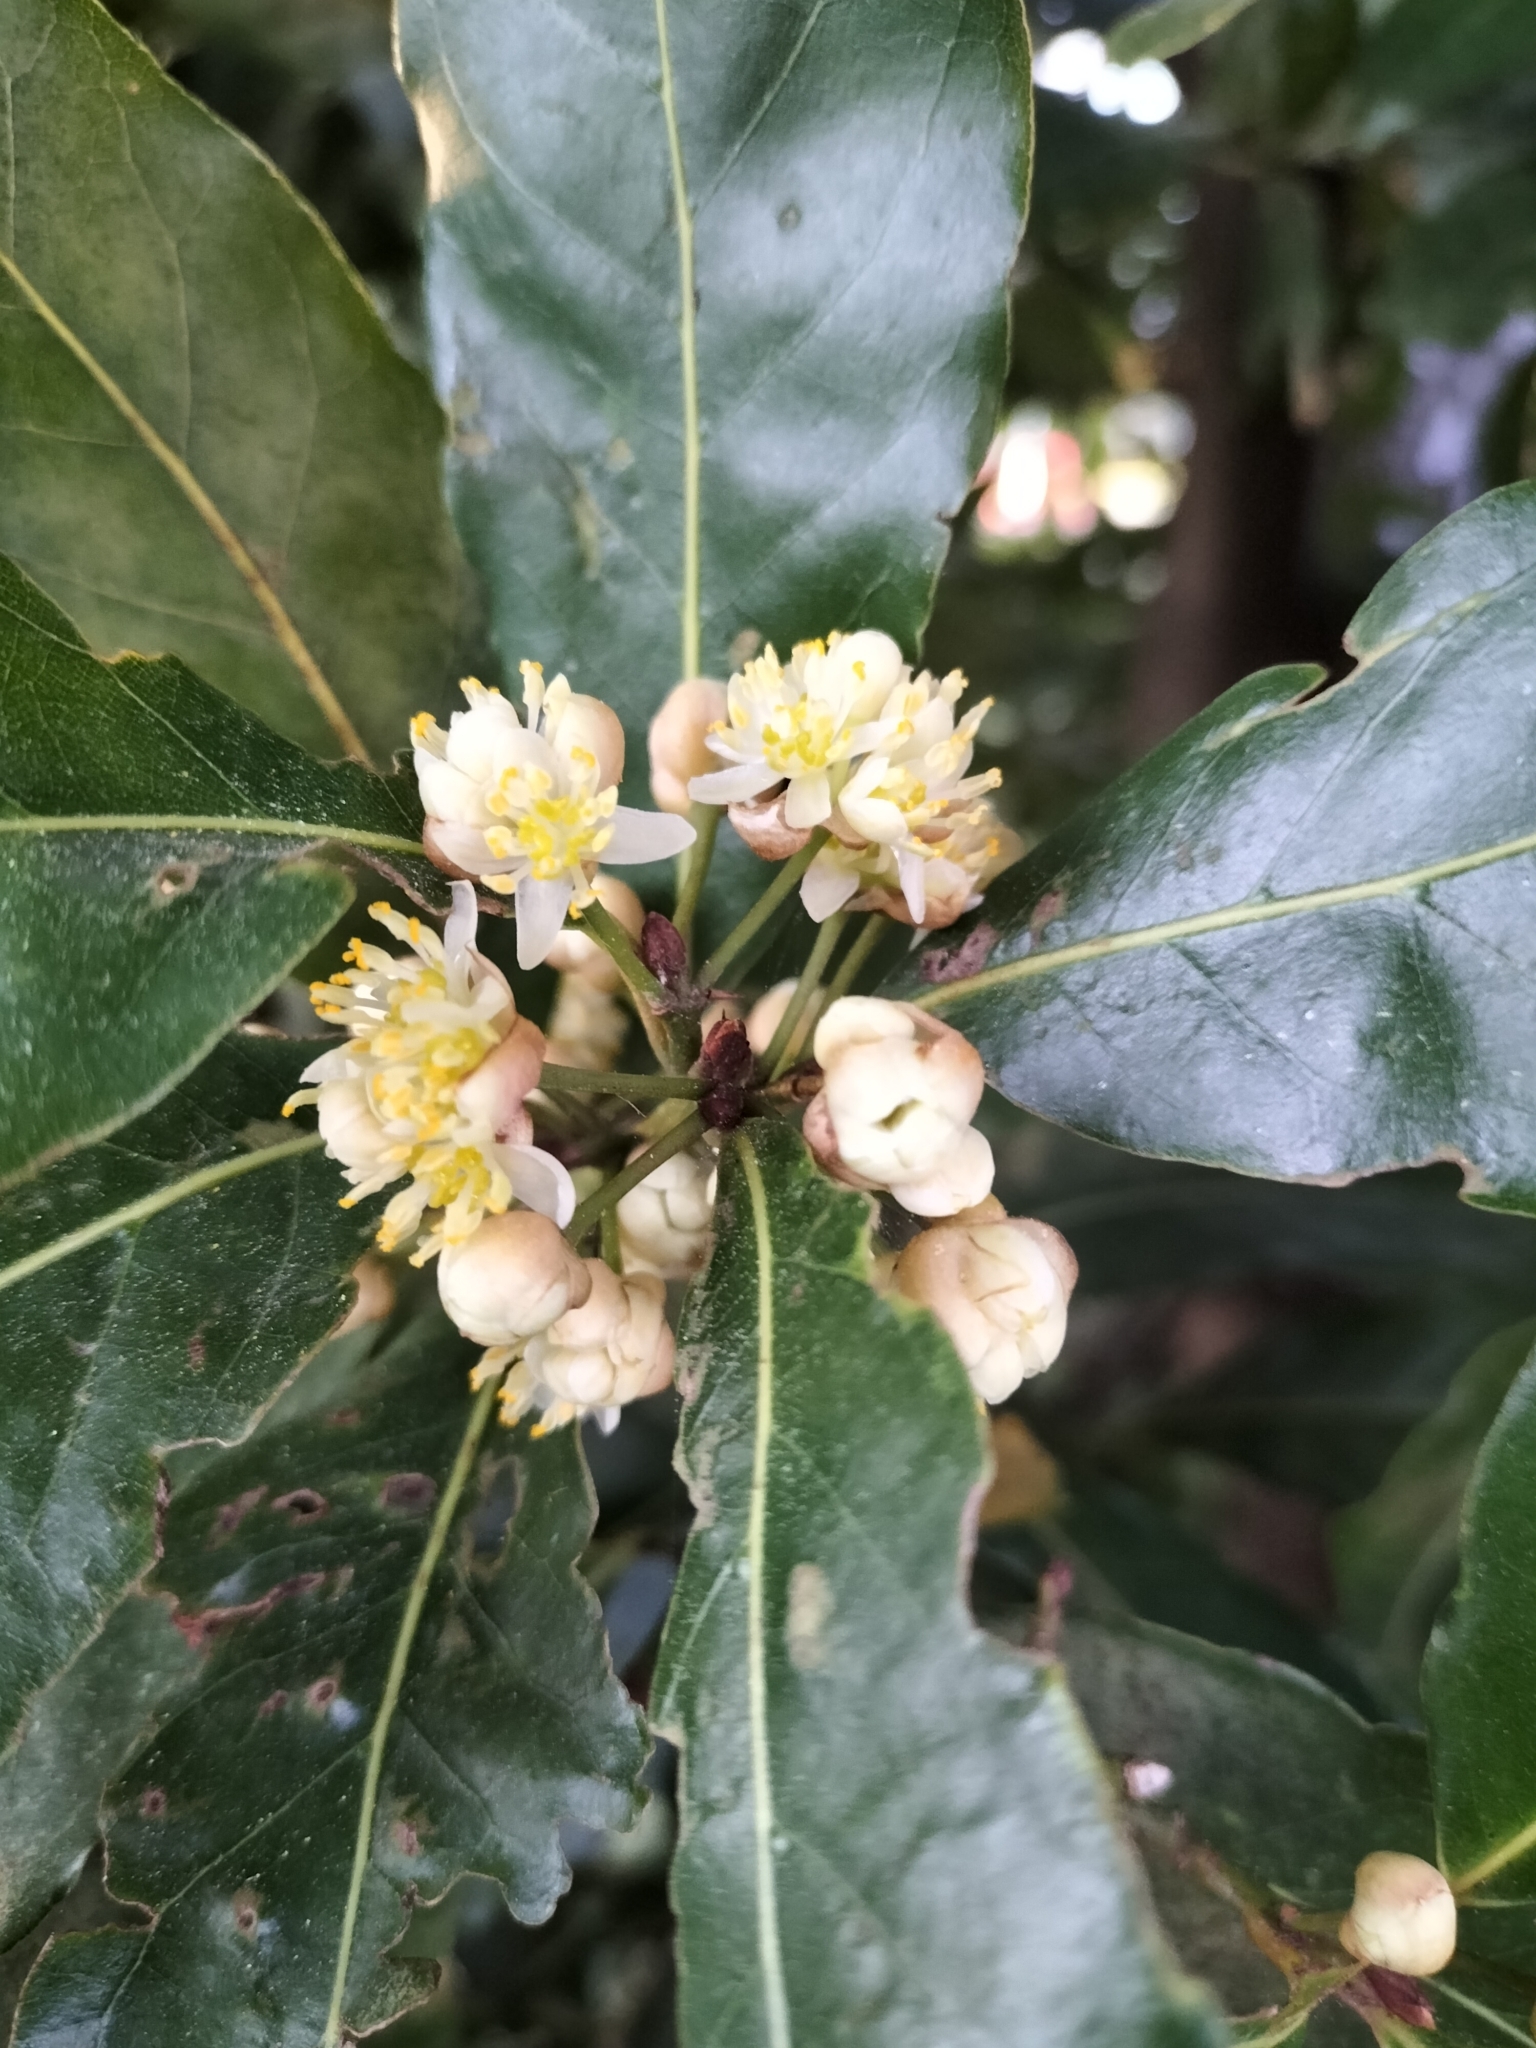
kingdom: Plantae
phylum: Tracheophyta
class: Magnoliopsida
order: Laurales
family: Lauraceae
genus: Laurus
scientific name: Laurus nobilis
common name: Bay
